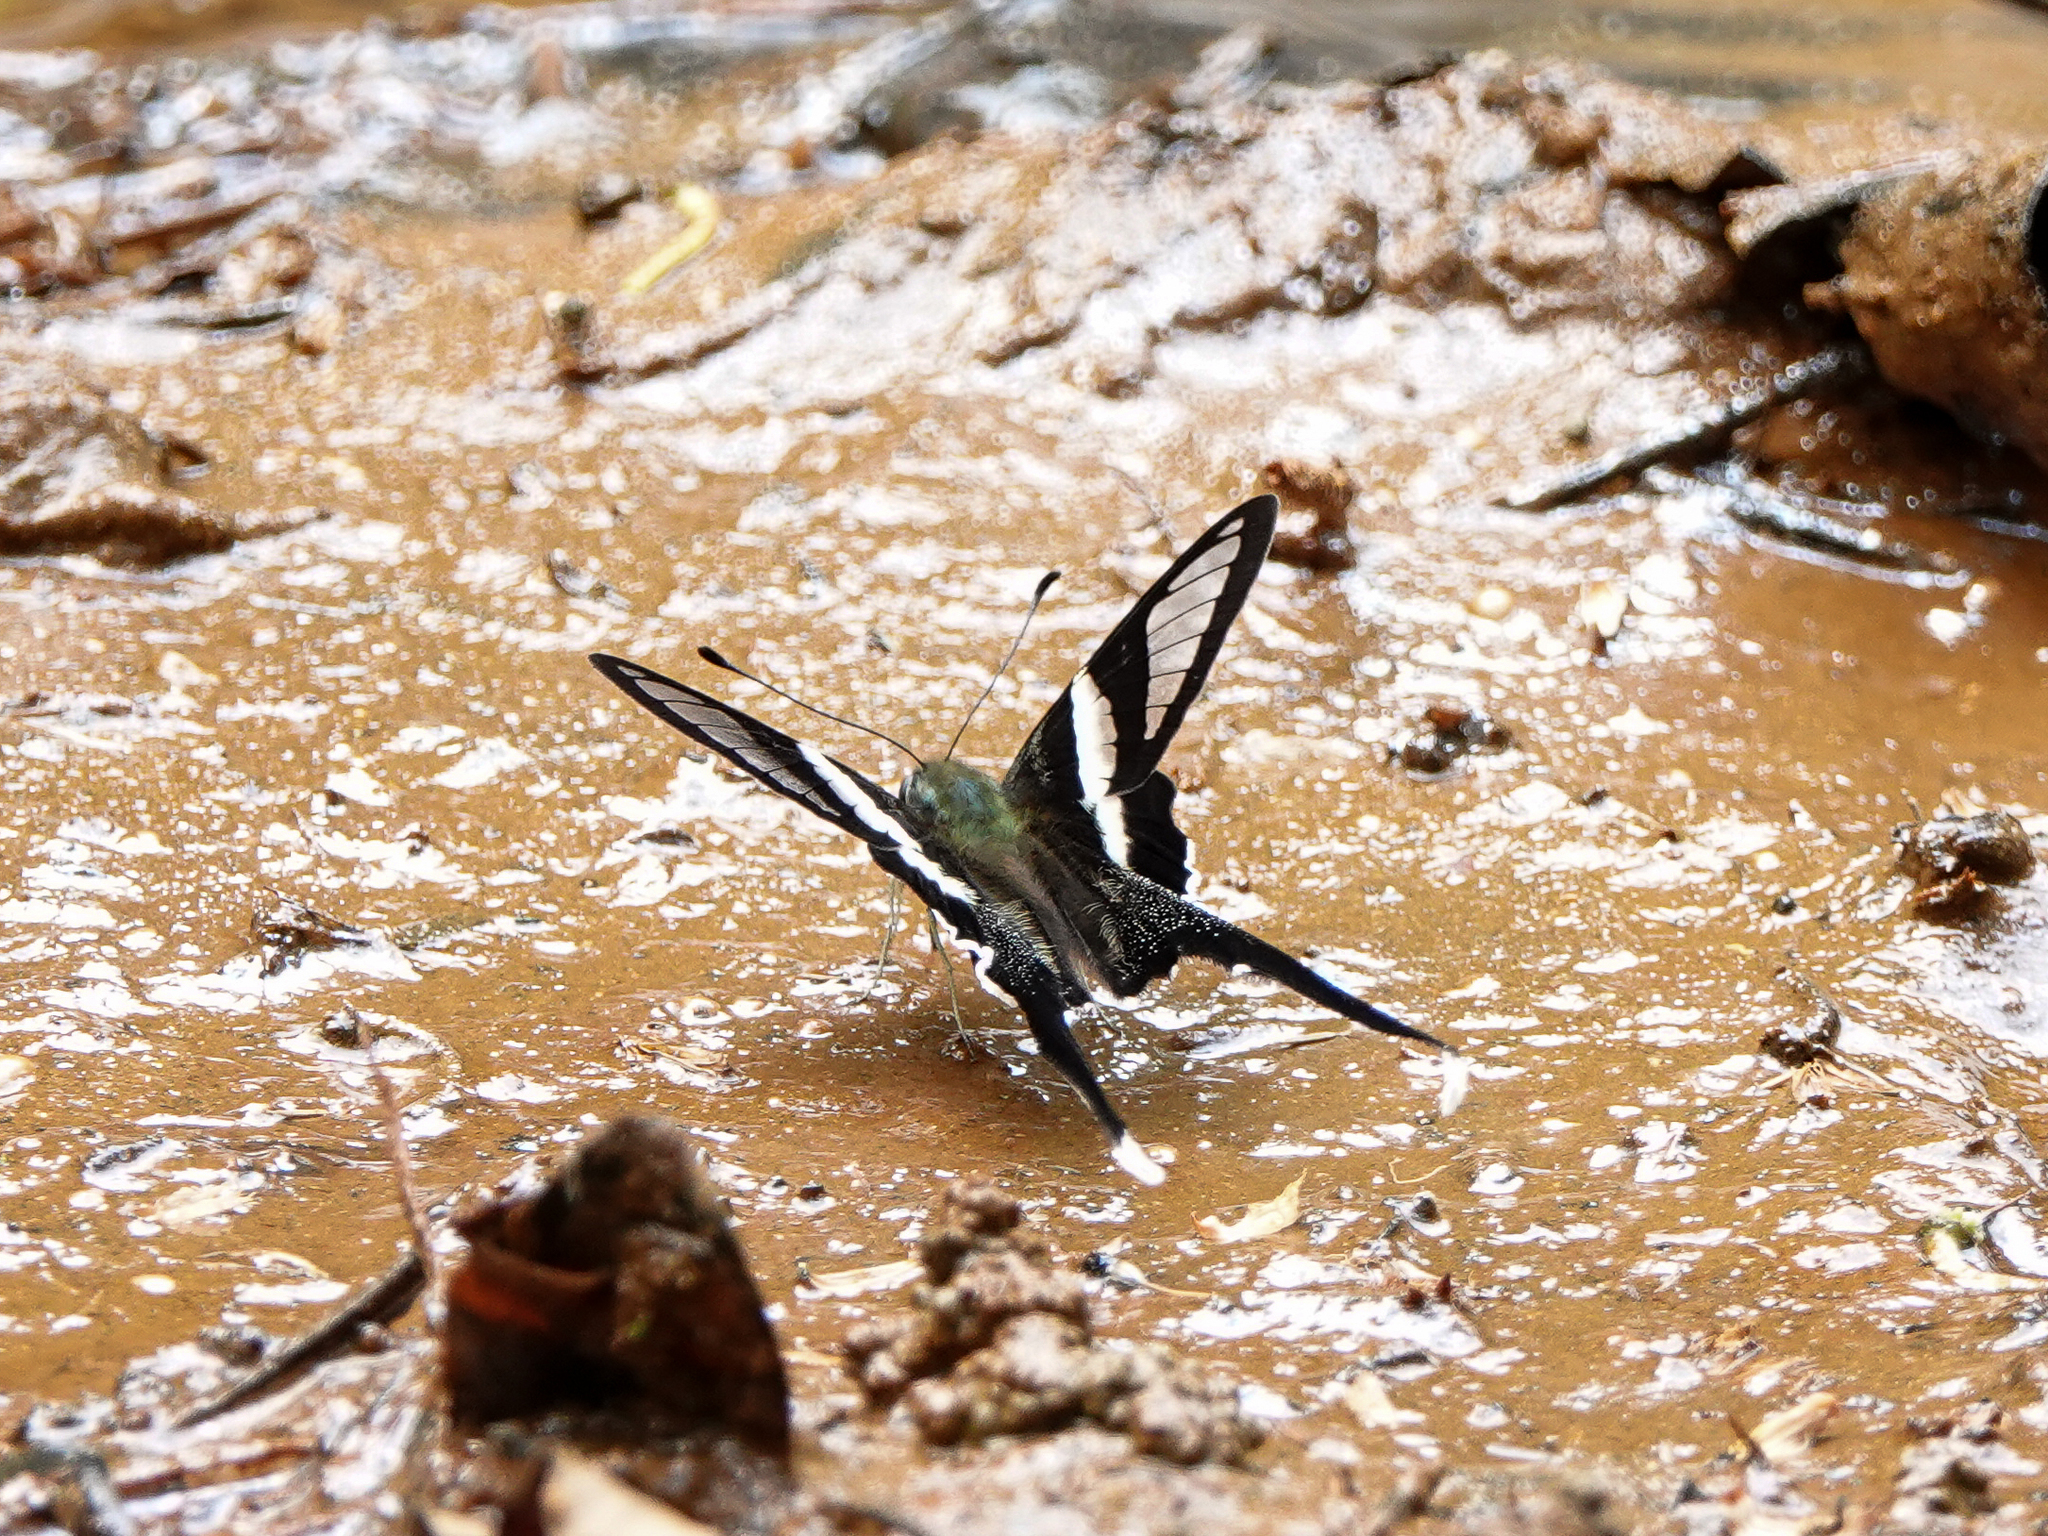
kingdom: Animalia
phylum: Arthropoda
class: Insecta
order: Lepidoptera
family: Papilionidae
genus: Lamproptera
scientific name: Lamproptera curius
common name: White dragontail
